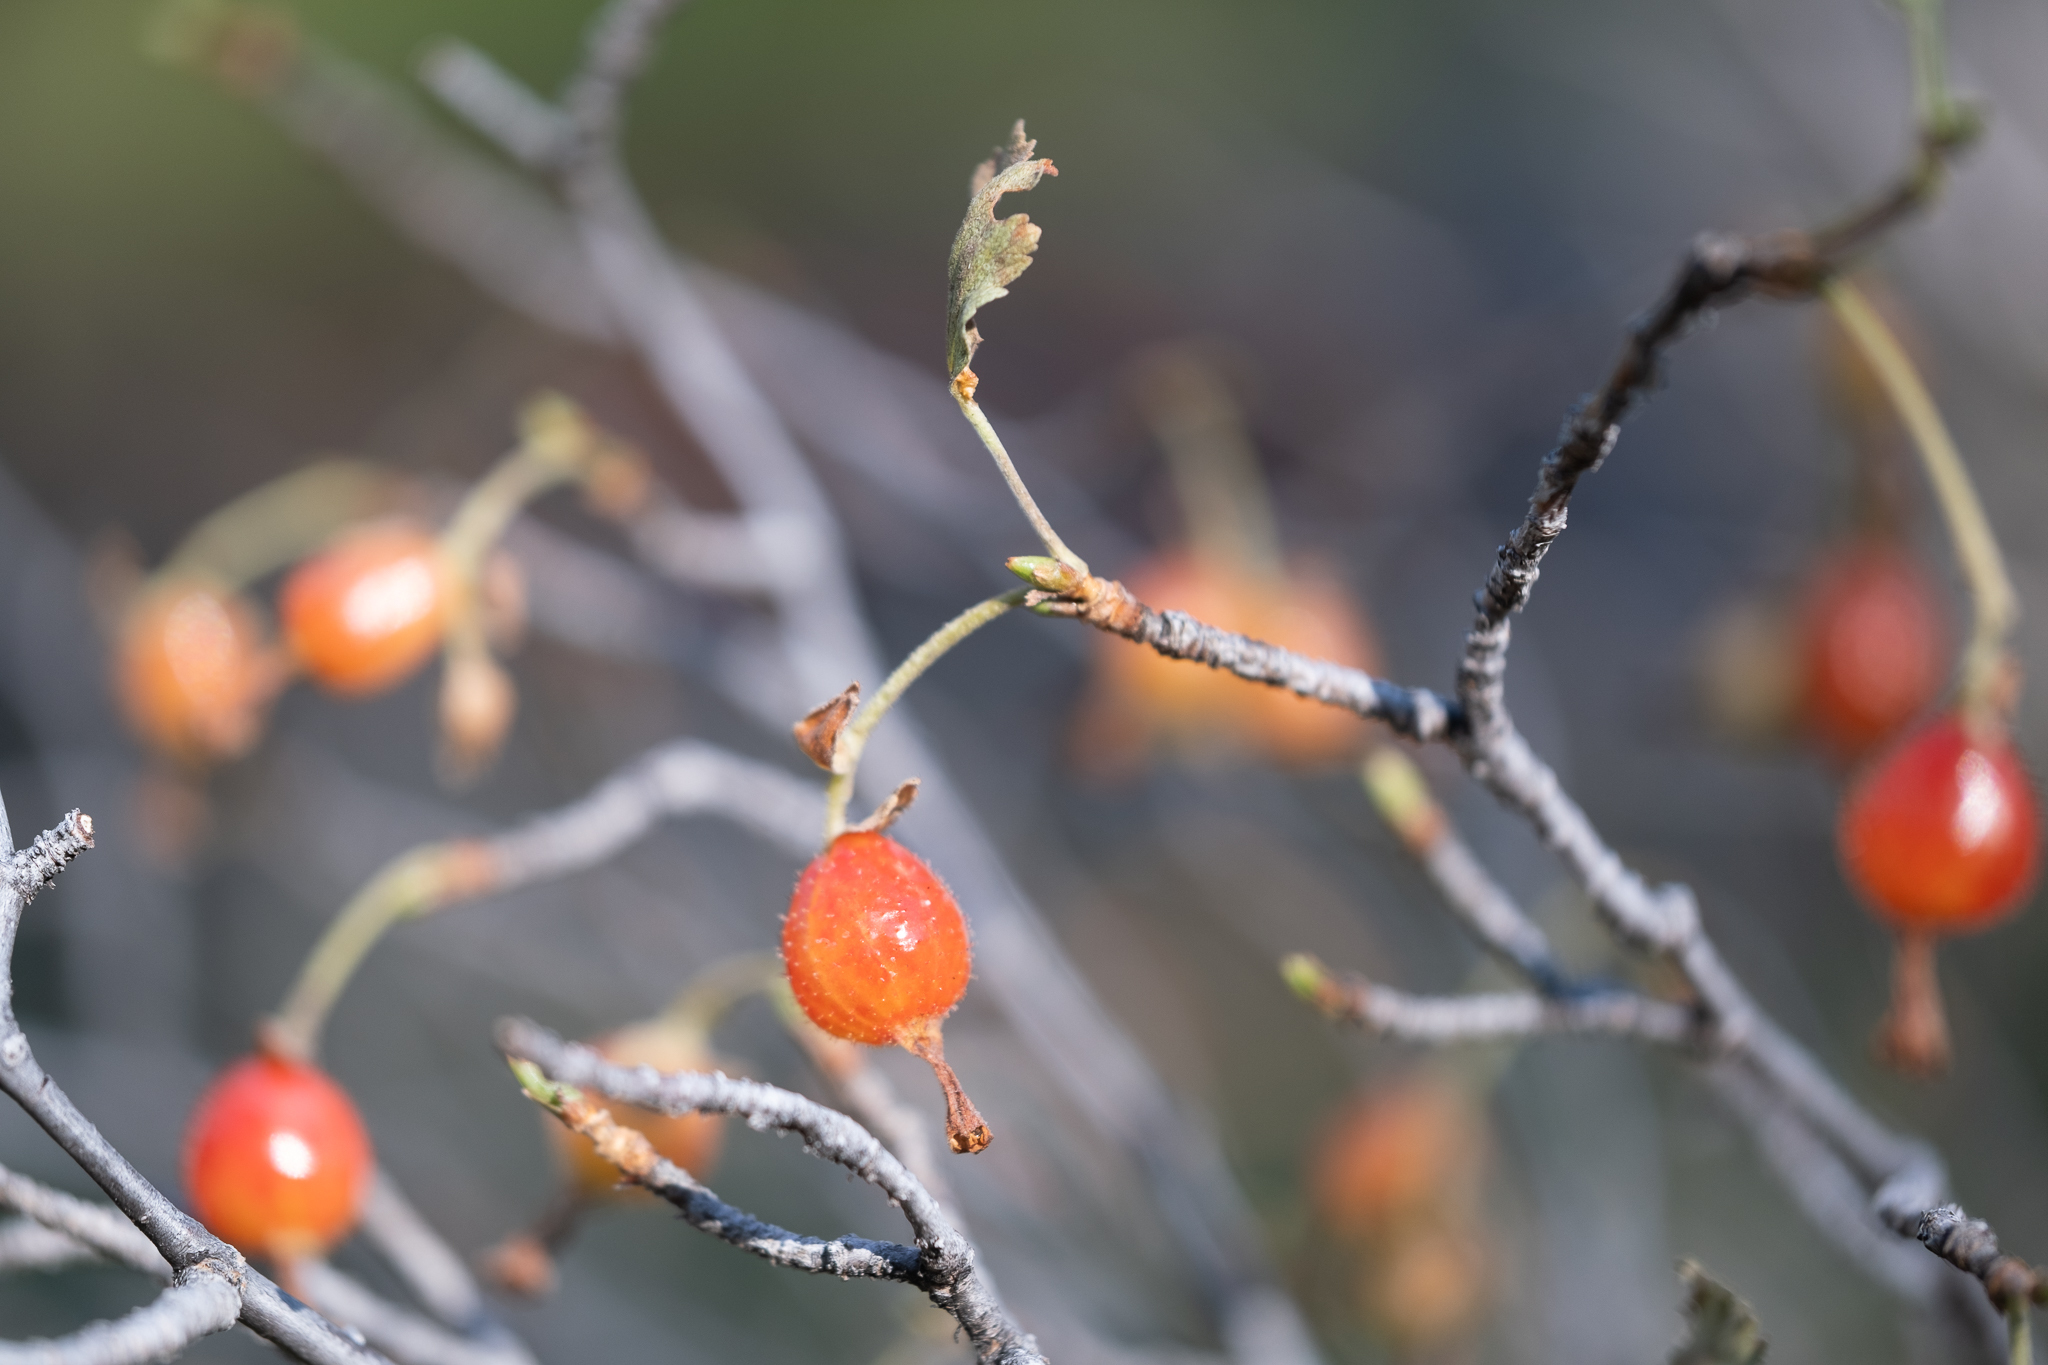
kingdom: Plantae
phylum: Tracheophyta
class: Magnoliopsida
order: Saxifragales
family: Grossulariaceae
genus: Ribes
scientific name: Ribes cereum
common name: Wax currant
